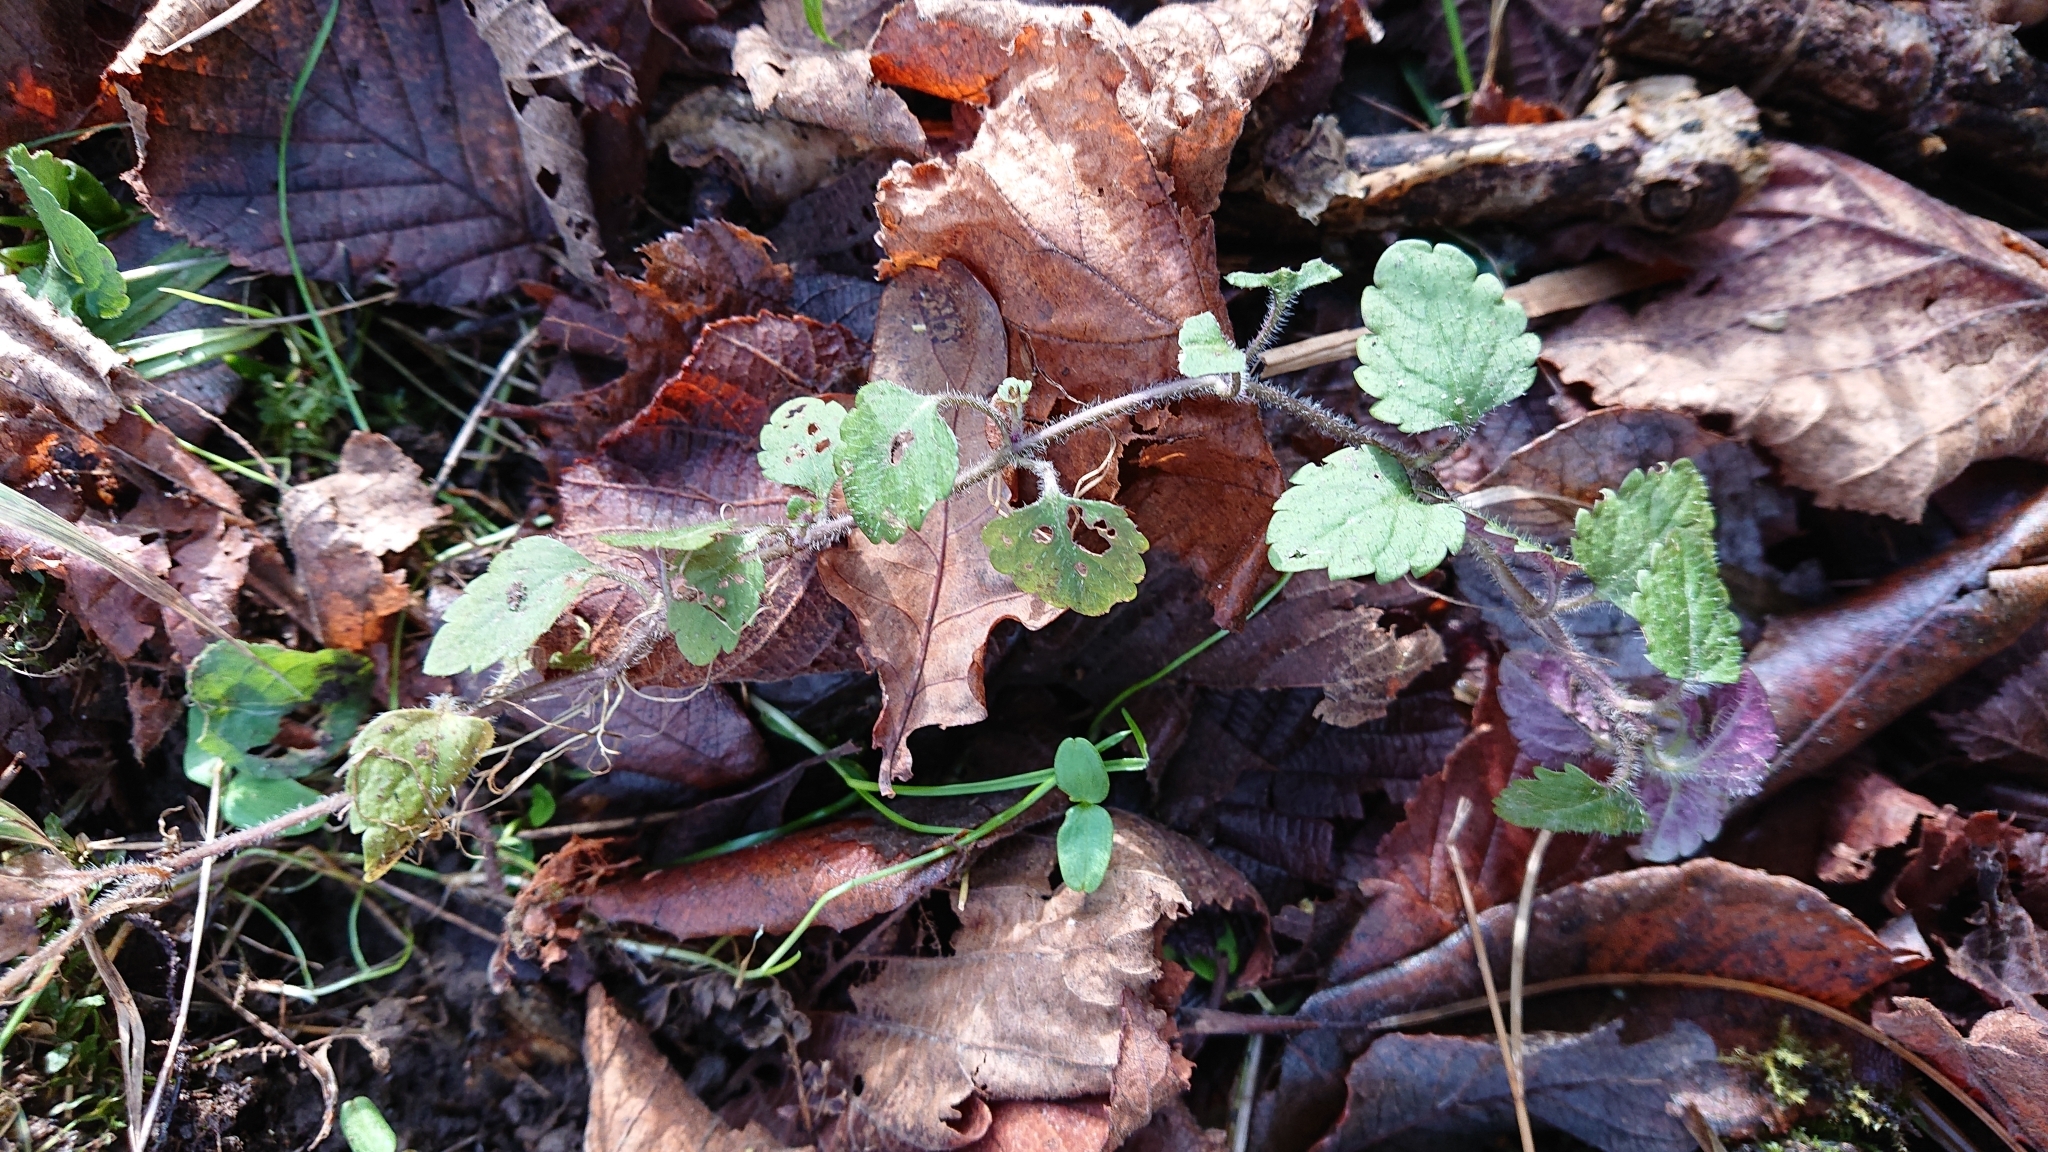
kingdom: Plantae
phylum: Tracheophyta
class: Magnoliopsida
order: Lamiales
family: Plantaginaceae
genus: Veronica
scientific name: Veronica montana
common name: Wood speedwell
